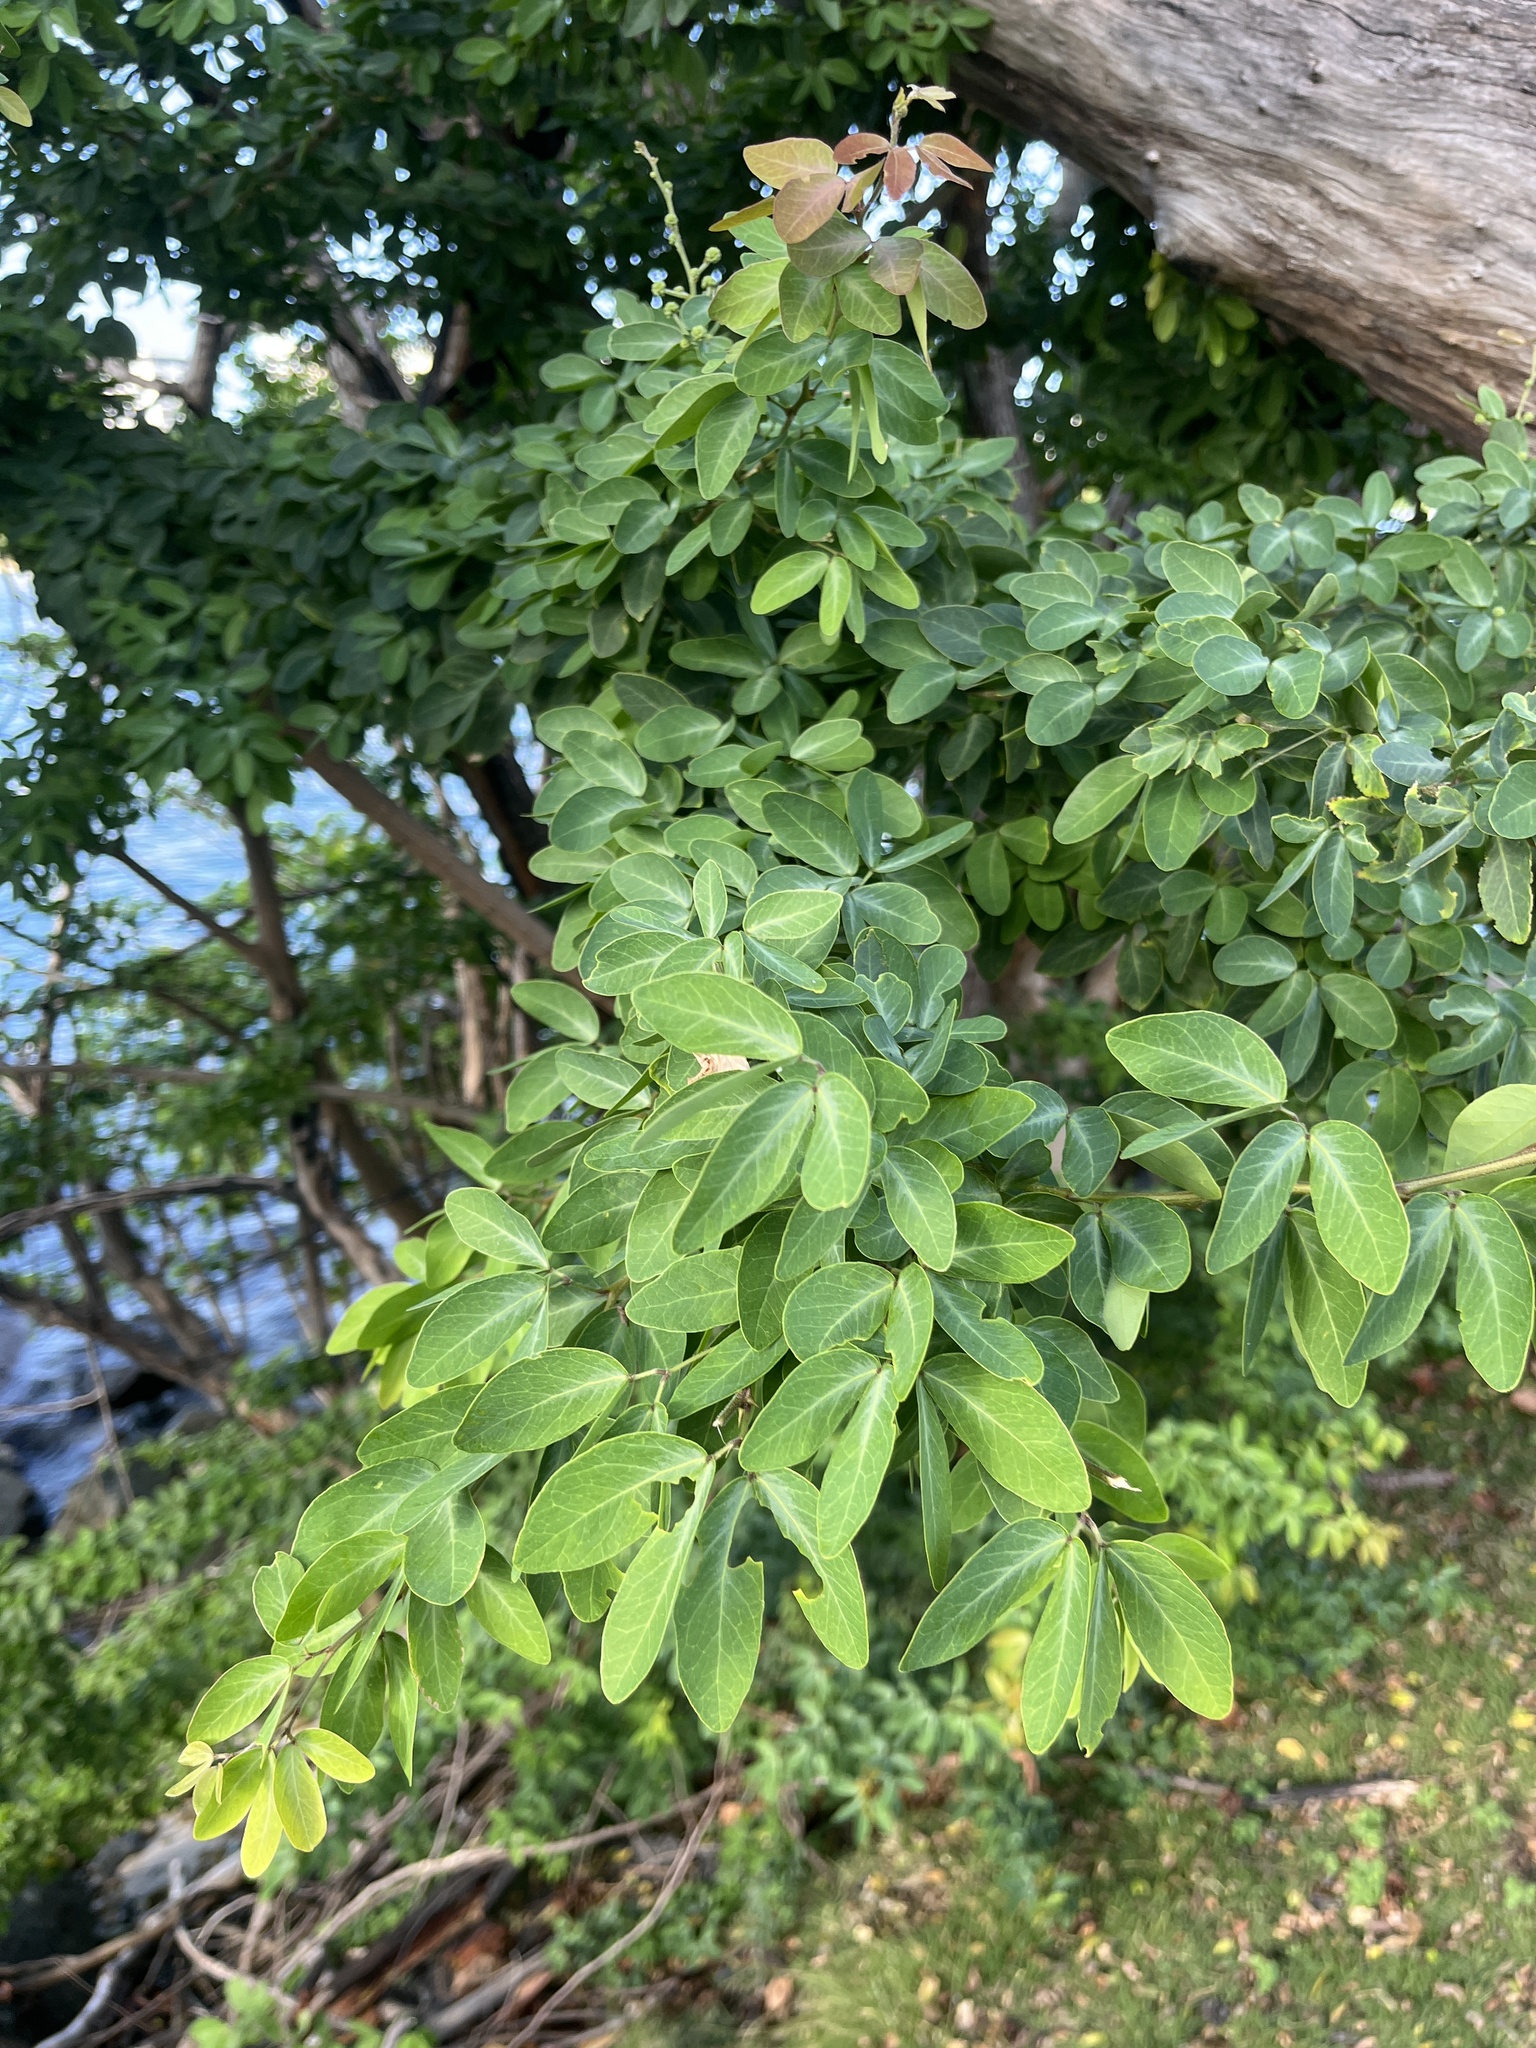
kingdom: Plantae
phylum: Tracheophyta
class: Magnoliopsida
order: Fabales
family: Fabaceae
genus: Pithecellobium
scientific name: Pithecellobium dulce
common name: Monkeypod
